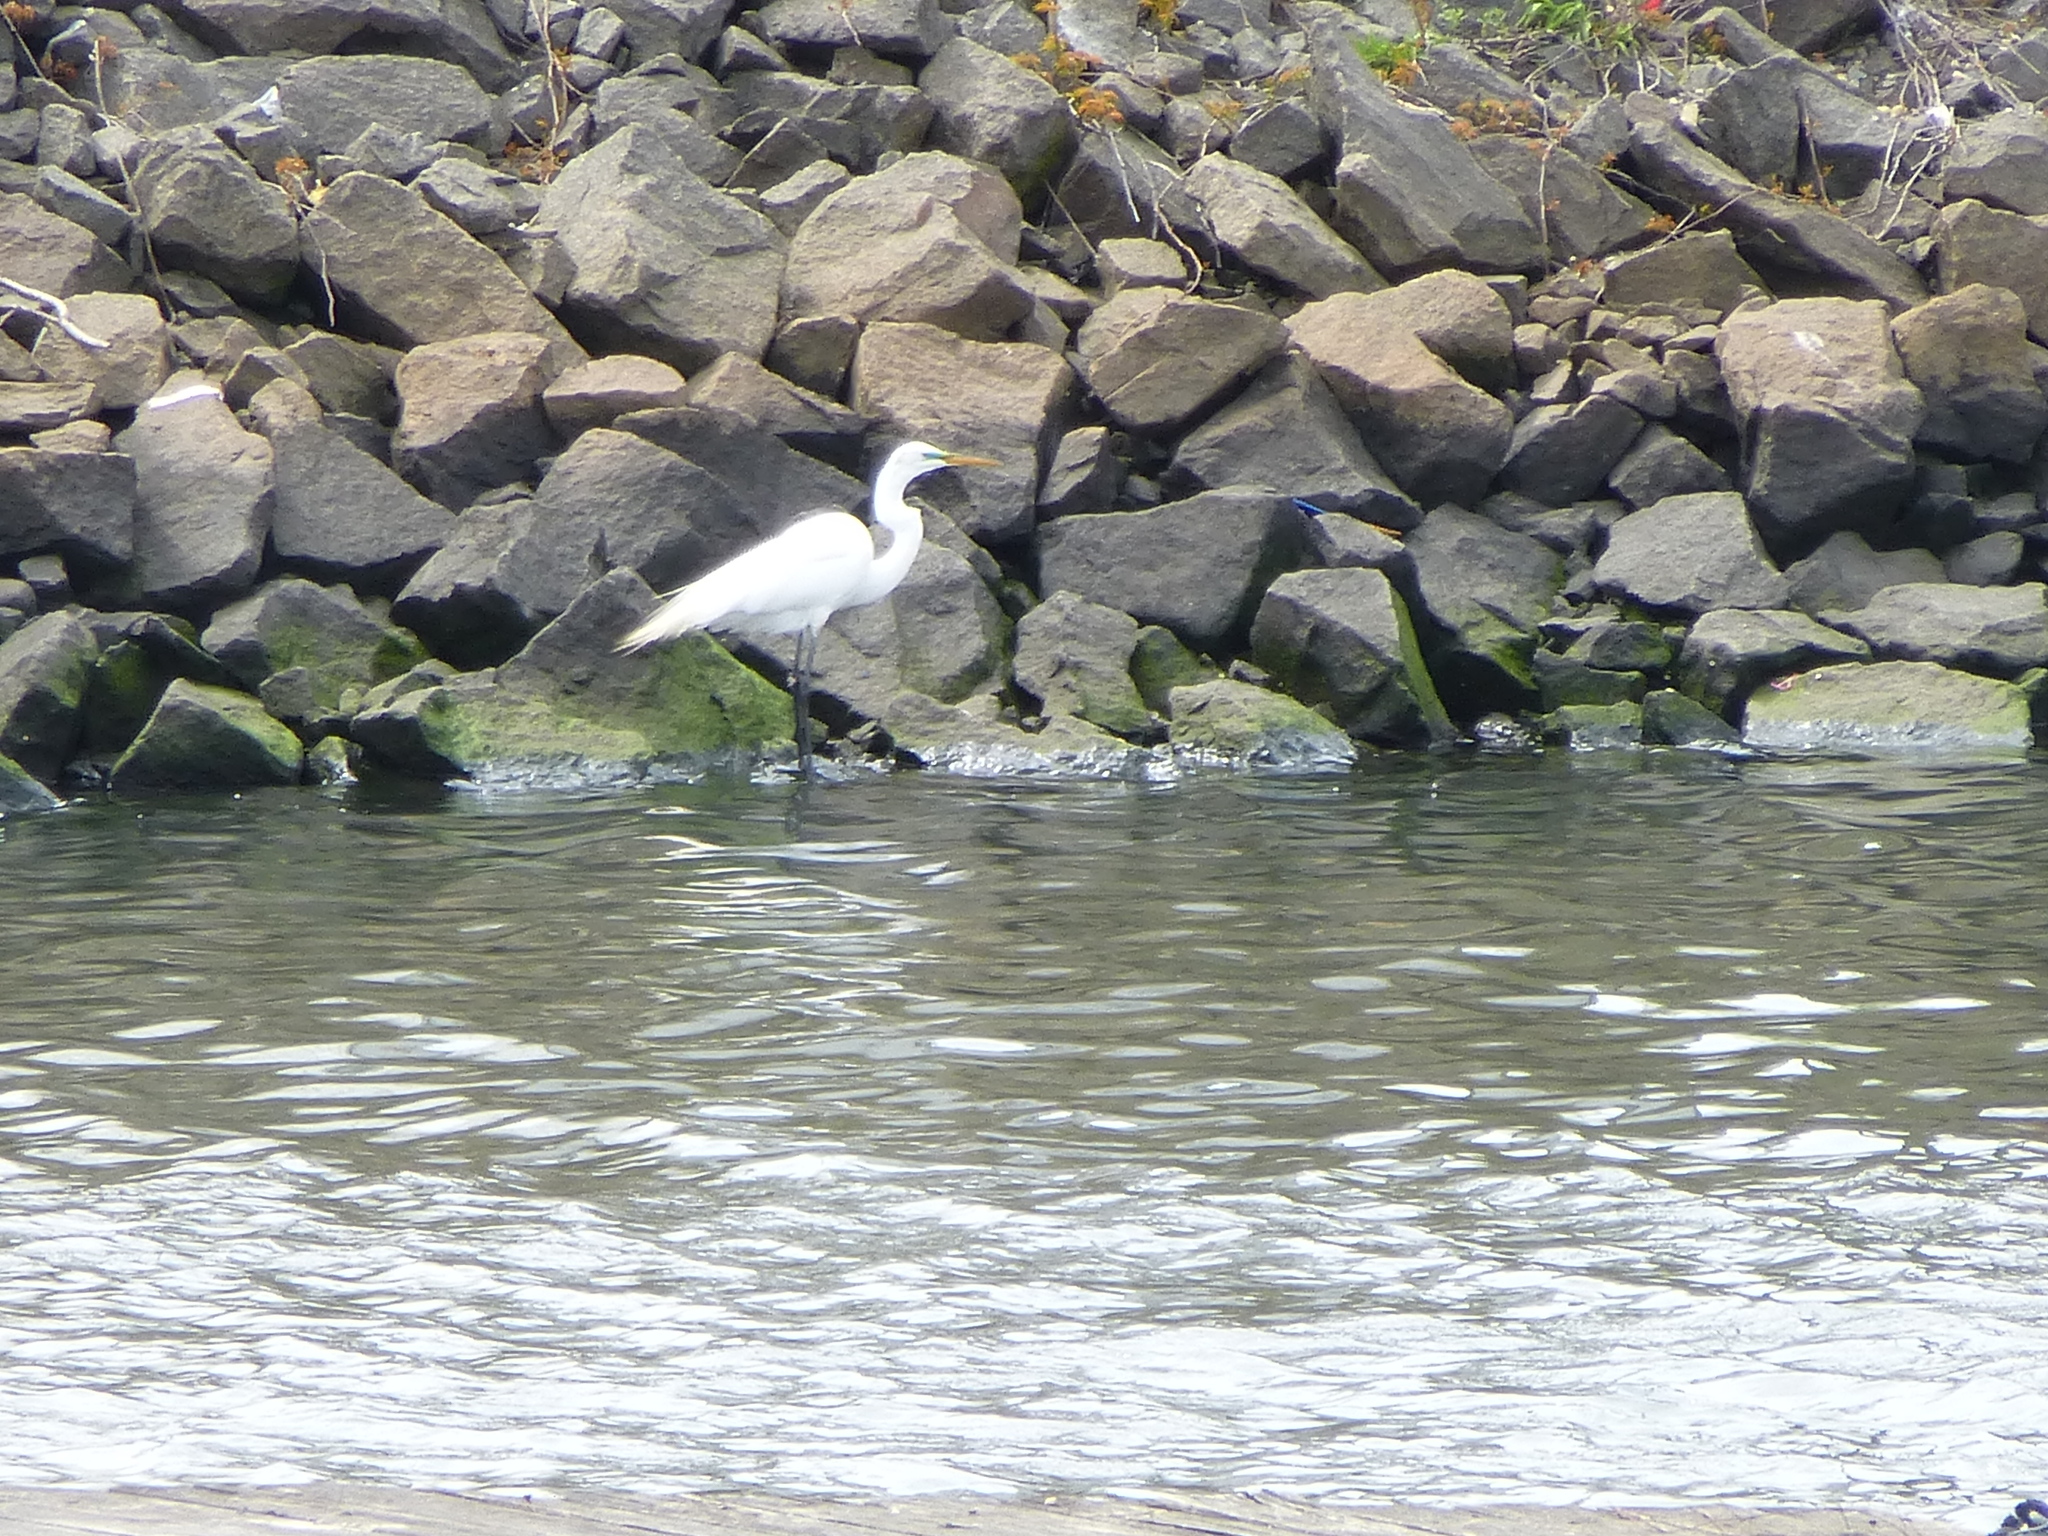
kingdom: Animalia
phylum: Chordata
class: Aves
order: Pelecaniformes
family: Ardeidae
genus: Ardea
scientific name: Ardea alba
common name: Great egret
